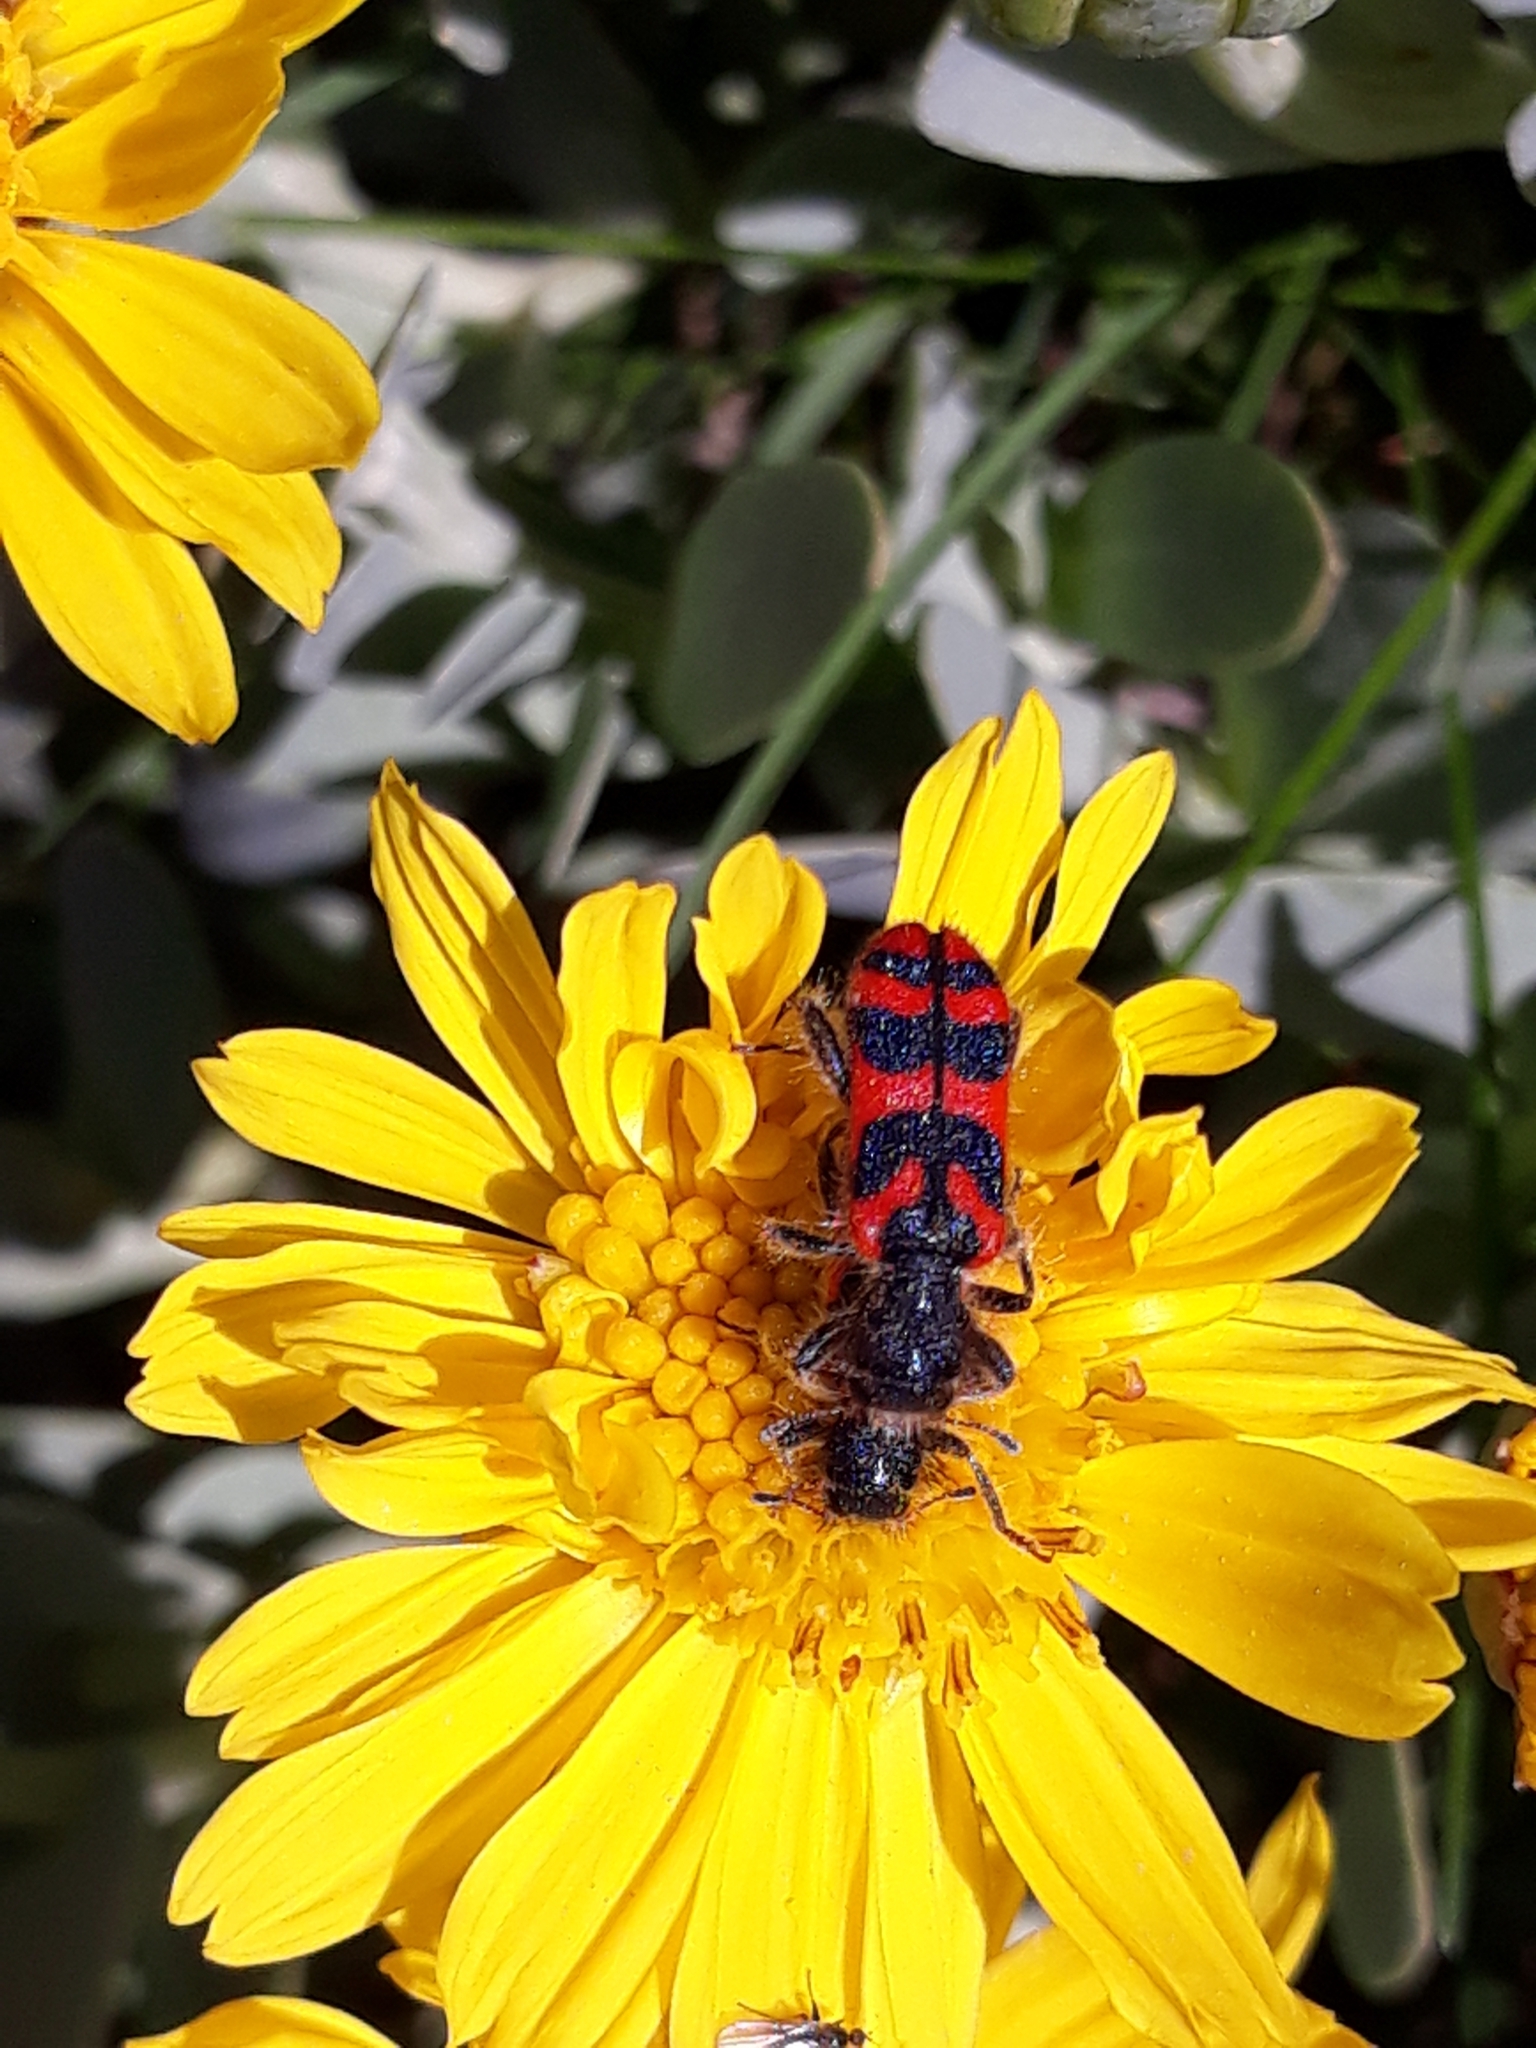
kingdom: Animalia
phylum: Arthropoda
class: Insecta
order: Coleoptera
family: Cleridae
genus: Trichodes
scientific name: Trichodes umbellatarum
